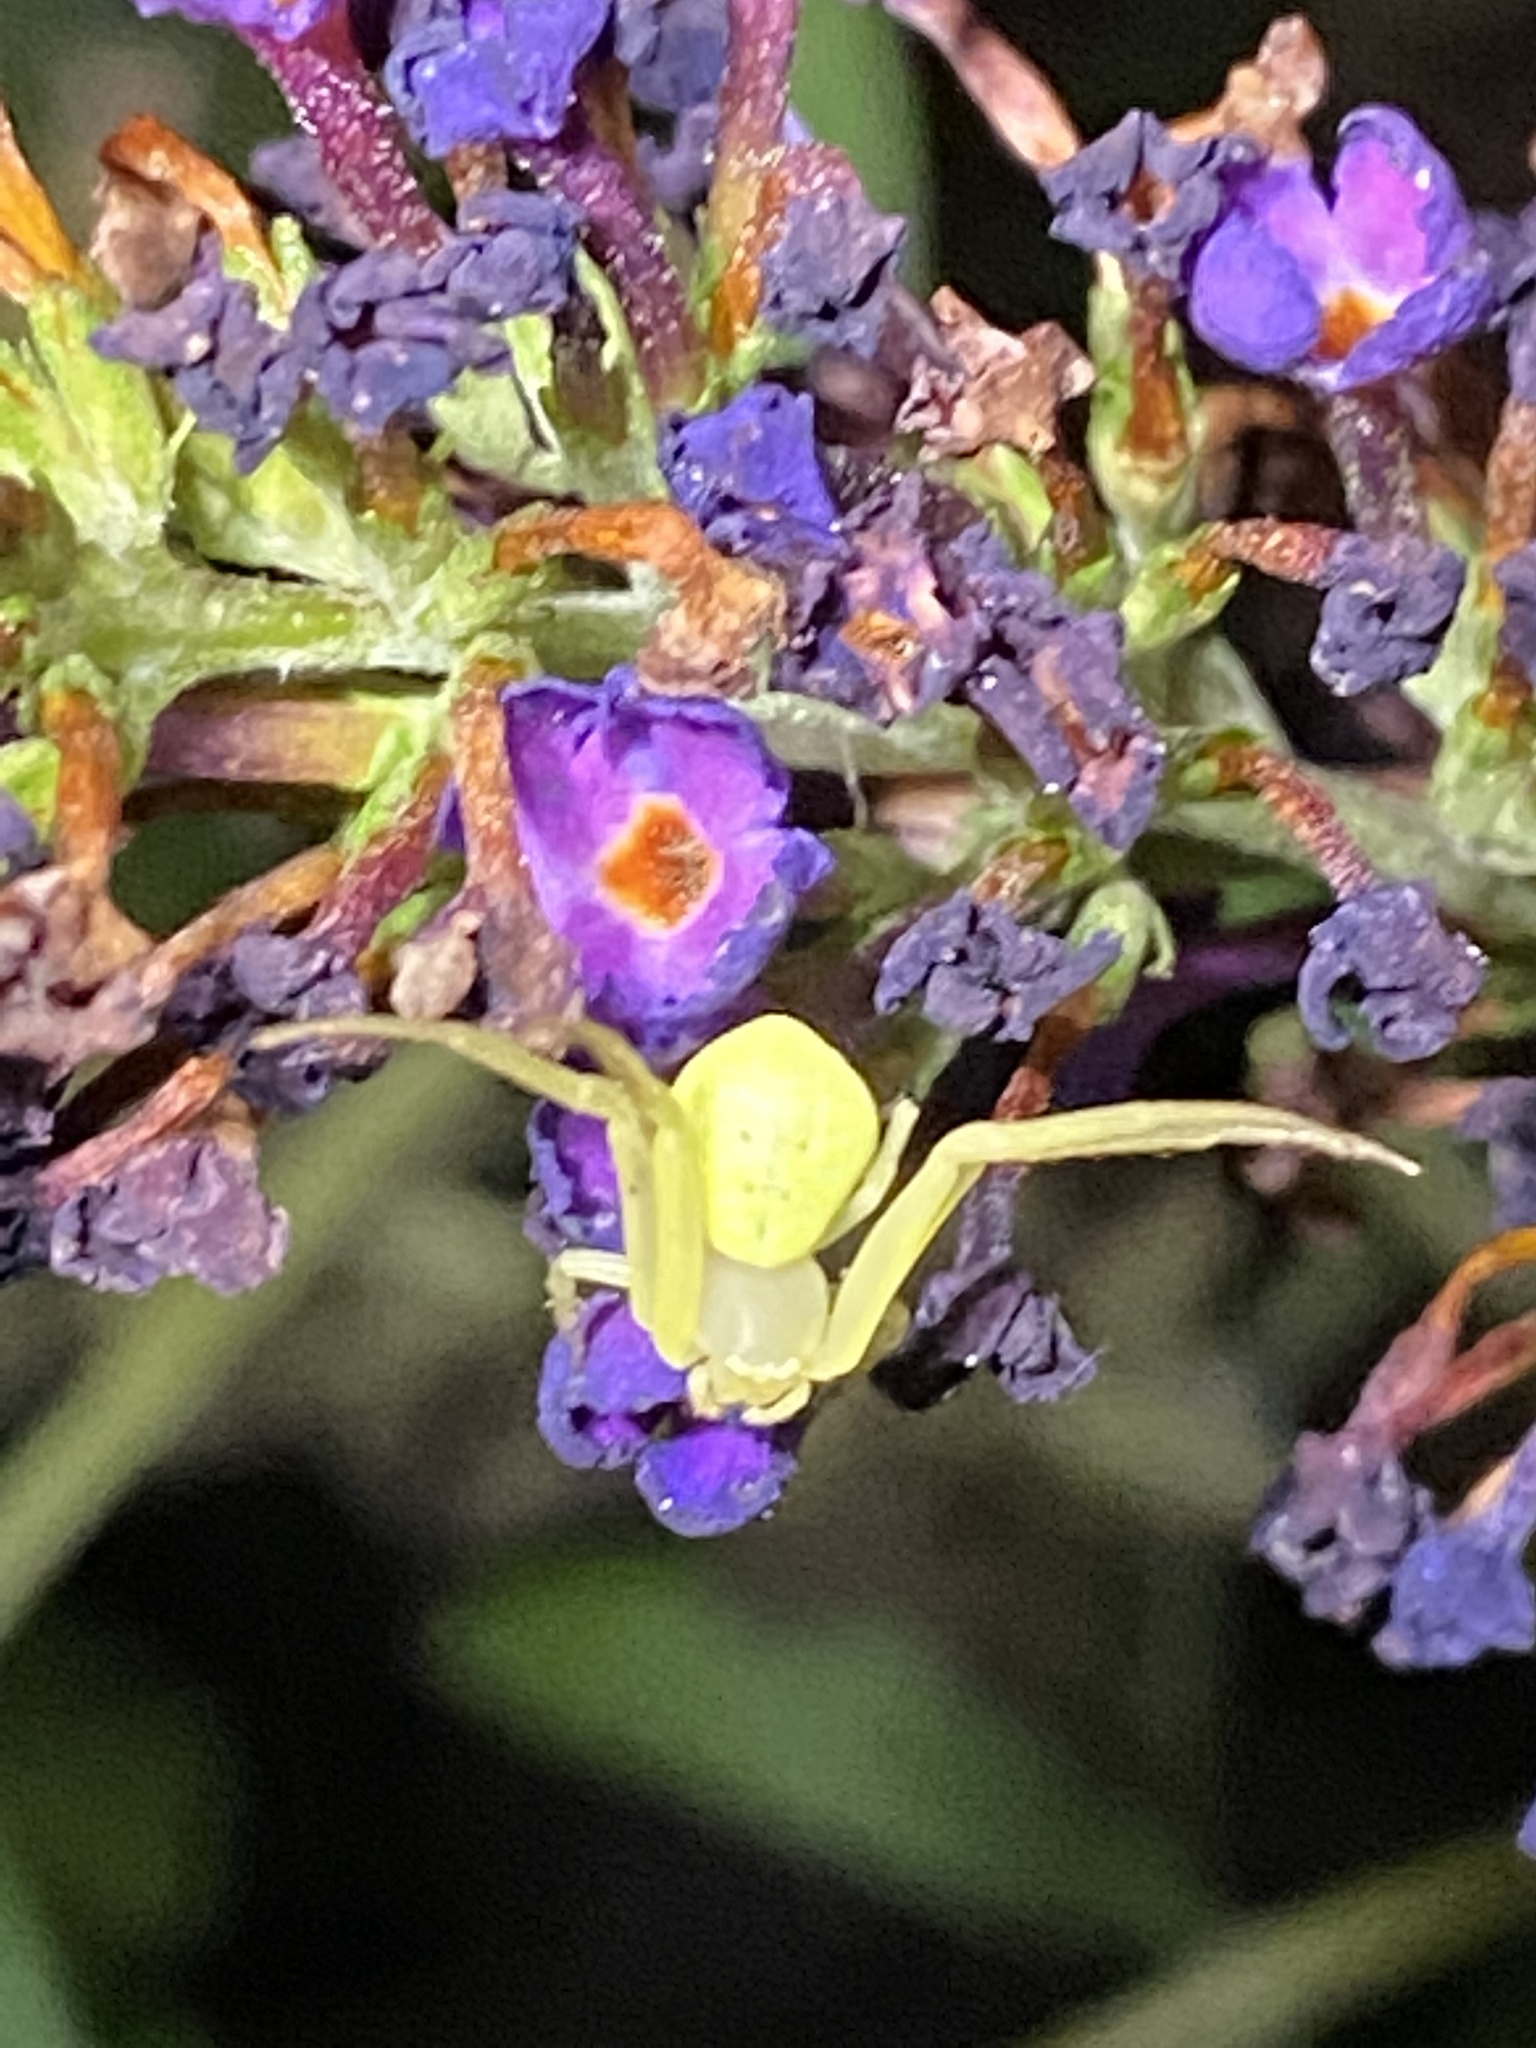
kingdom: Animalia
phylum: Arthropoda
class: Arachnida
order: Araneae
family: Thomisidae
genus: Misumessus
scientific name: Misumessus oblongus
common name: American green crab spider
